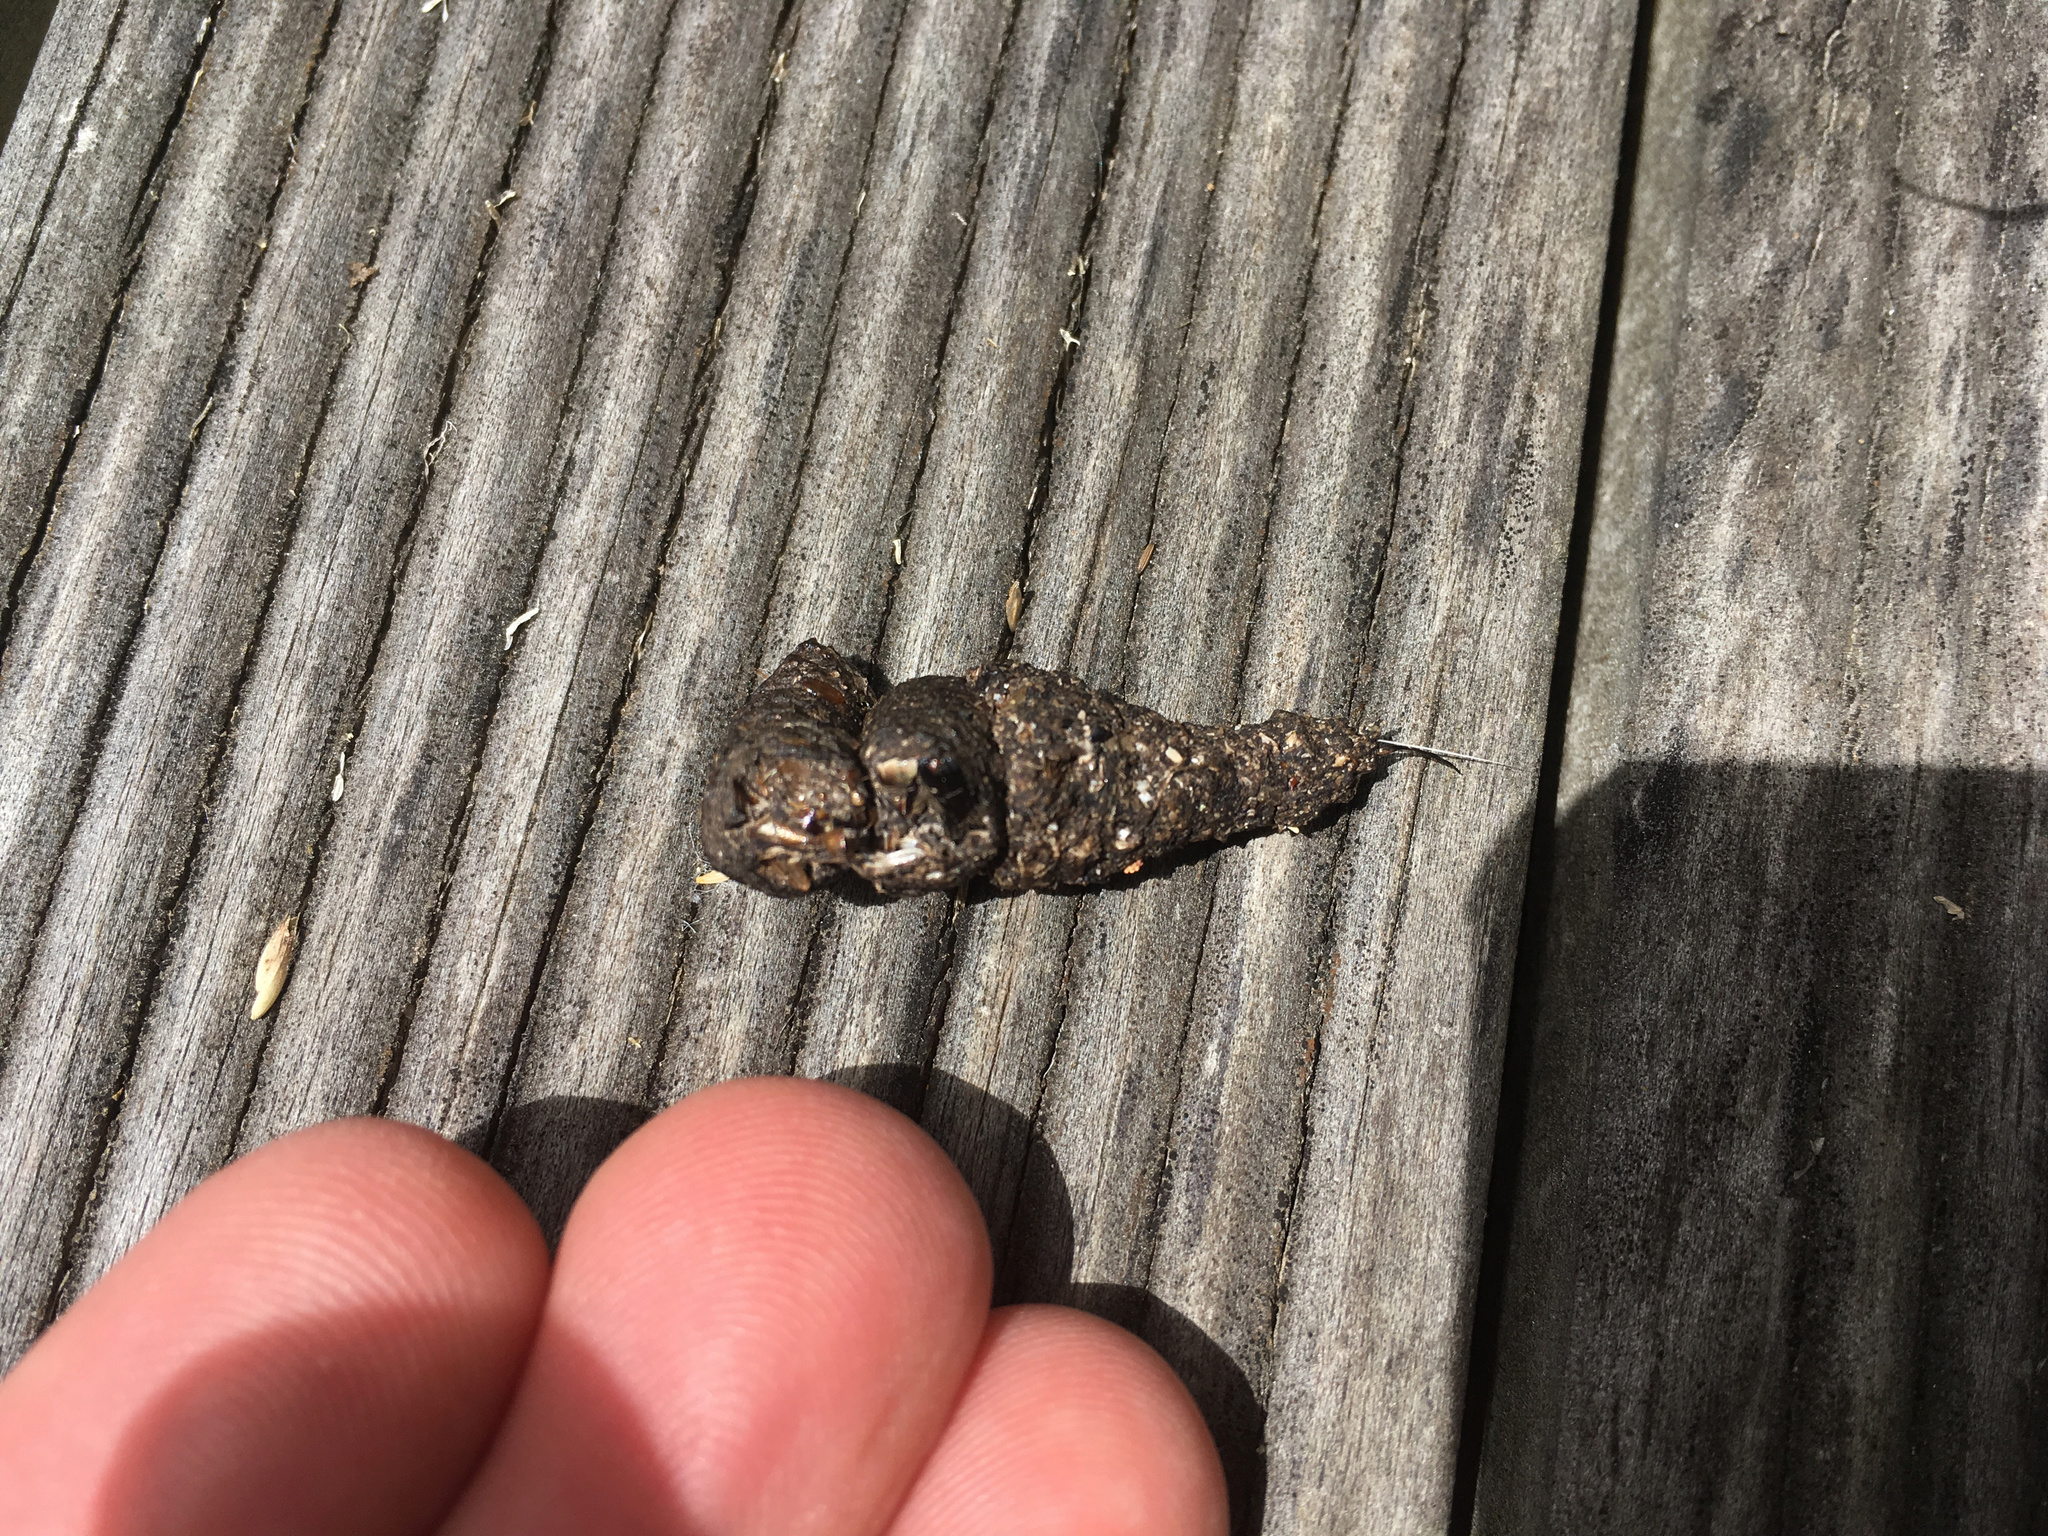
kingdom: Animalia
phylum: Chordata
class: Mammalia
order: Erinaceomorpha
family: Erinaceidae
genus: Erinaceus
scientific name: Erinaceus europaeus
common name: West european hedgehog
